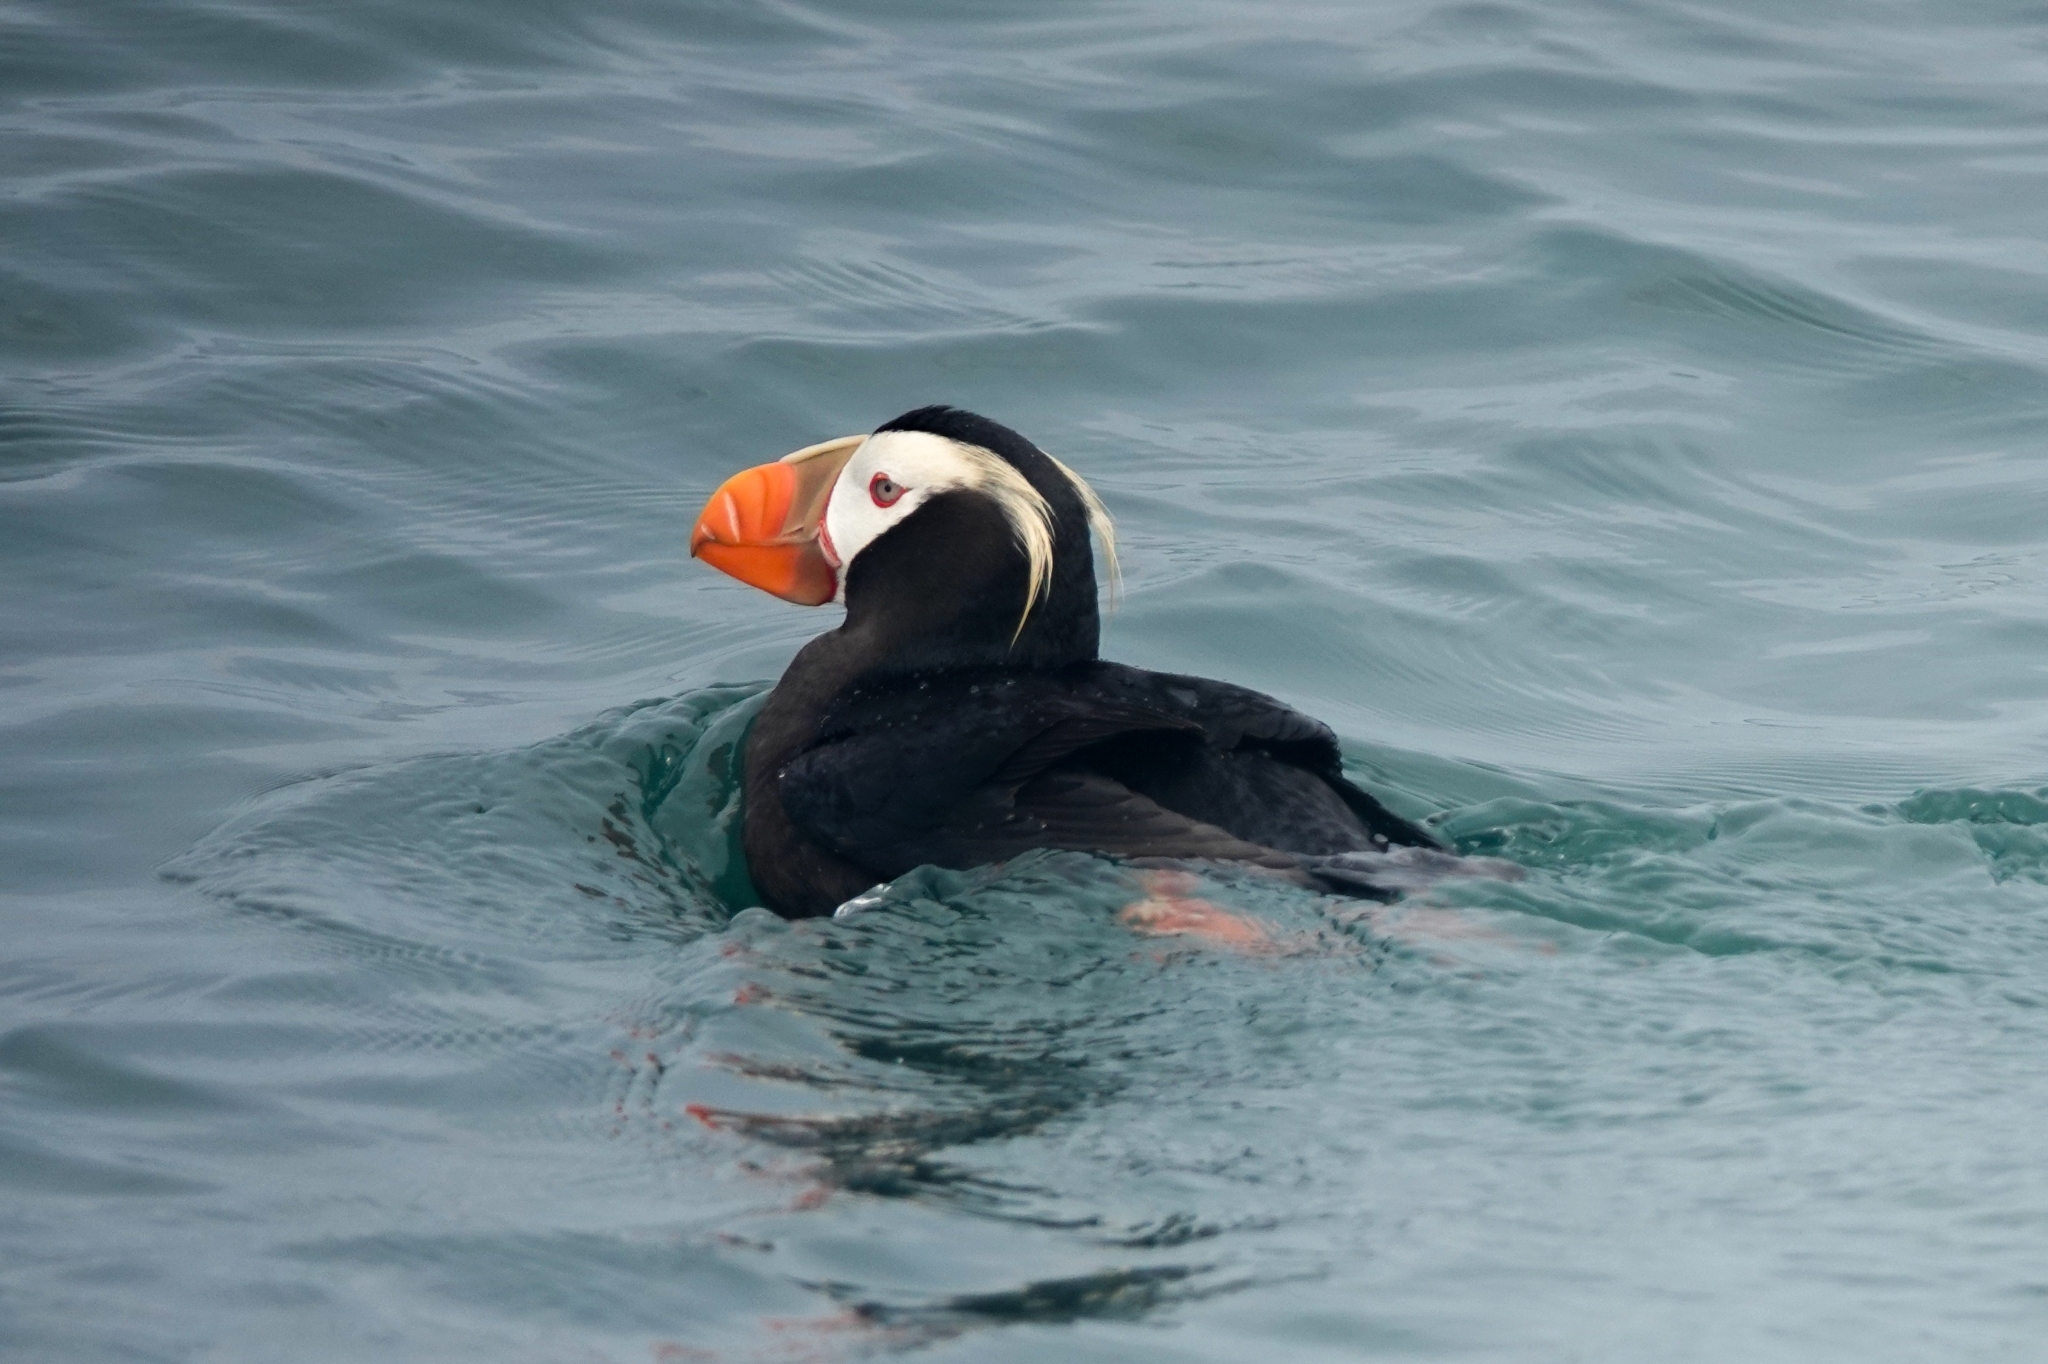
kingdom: Animalia
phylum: Chordata
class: Aves
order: Charadriiformes
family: Alcidae
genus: Fratercula
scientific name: Fratercula cirrhata
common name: Tufted puffin
